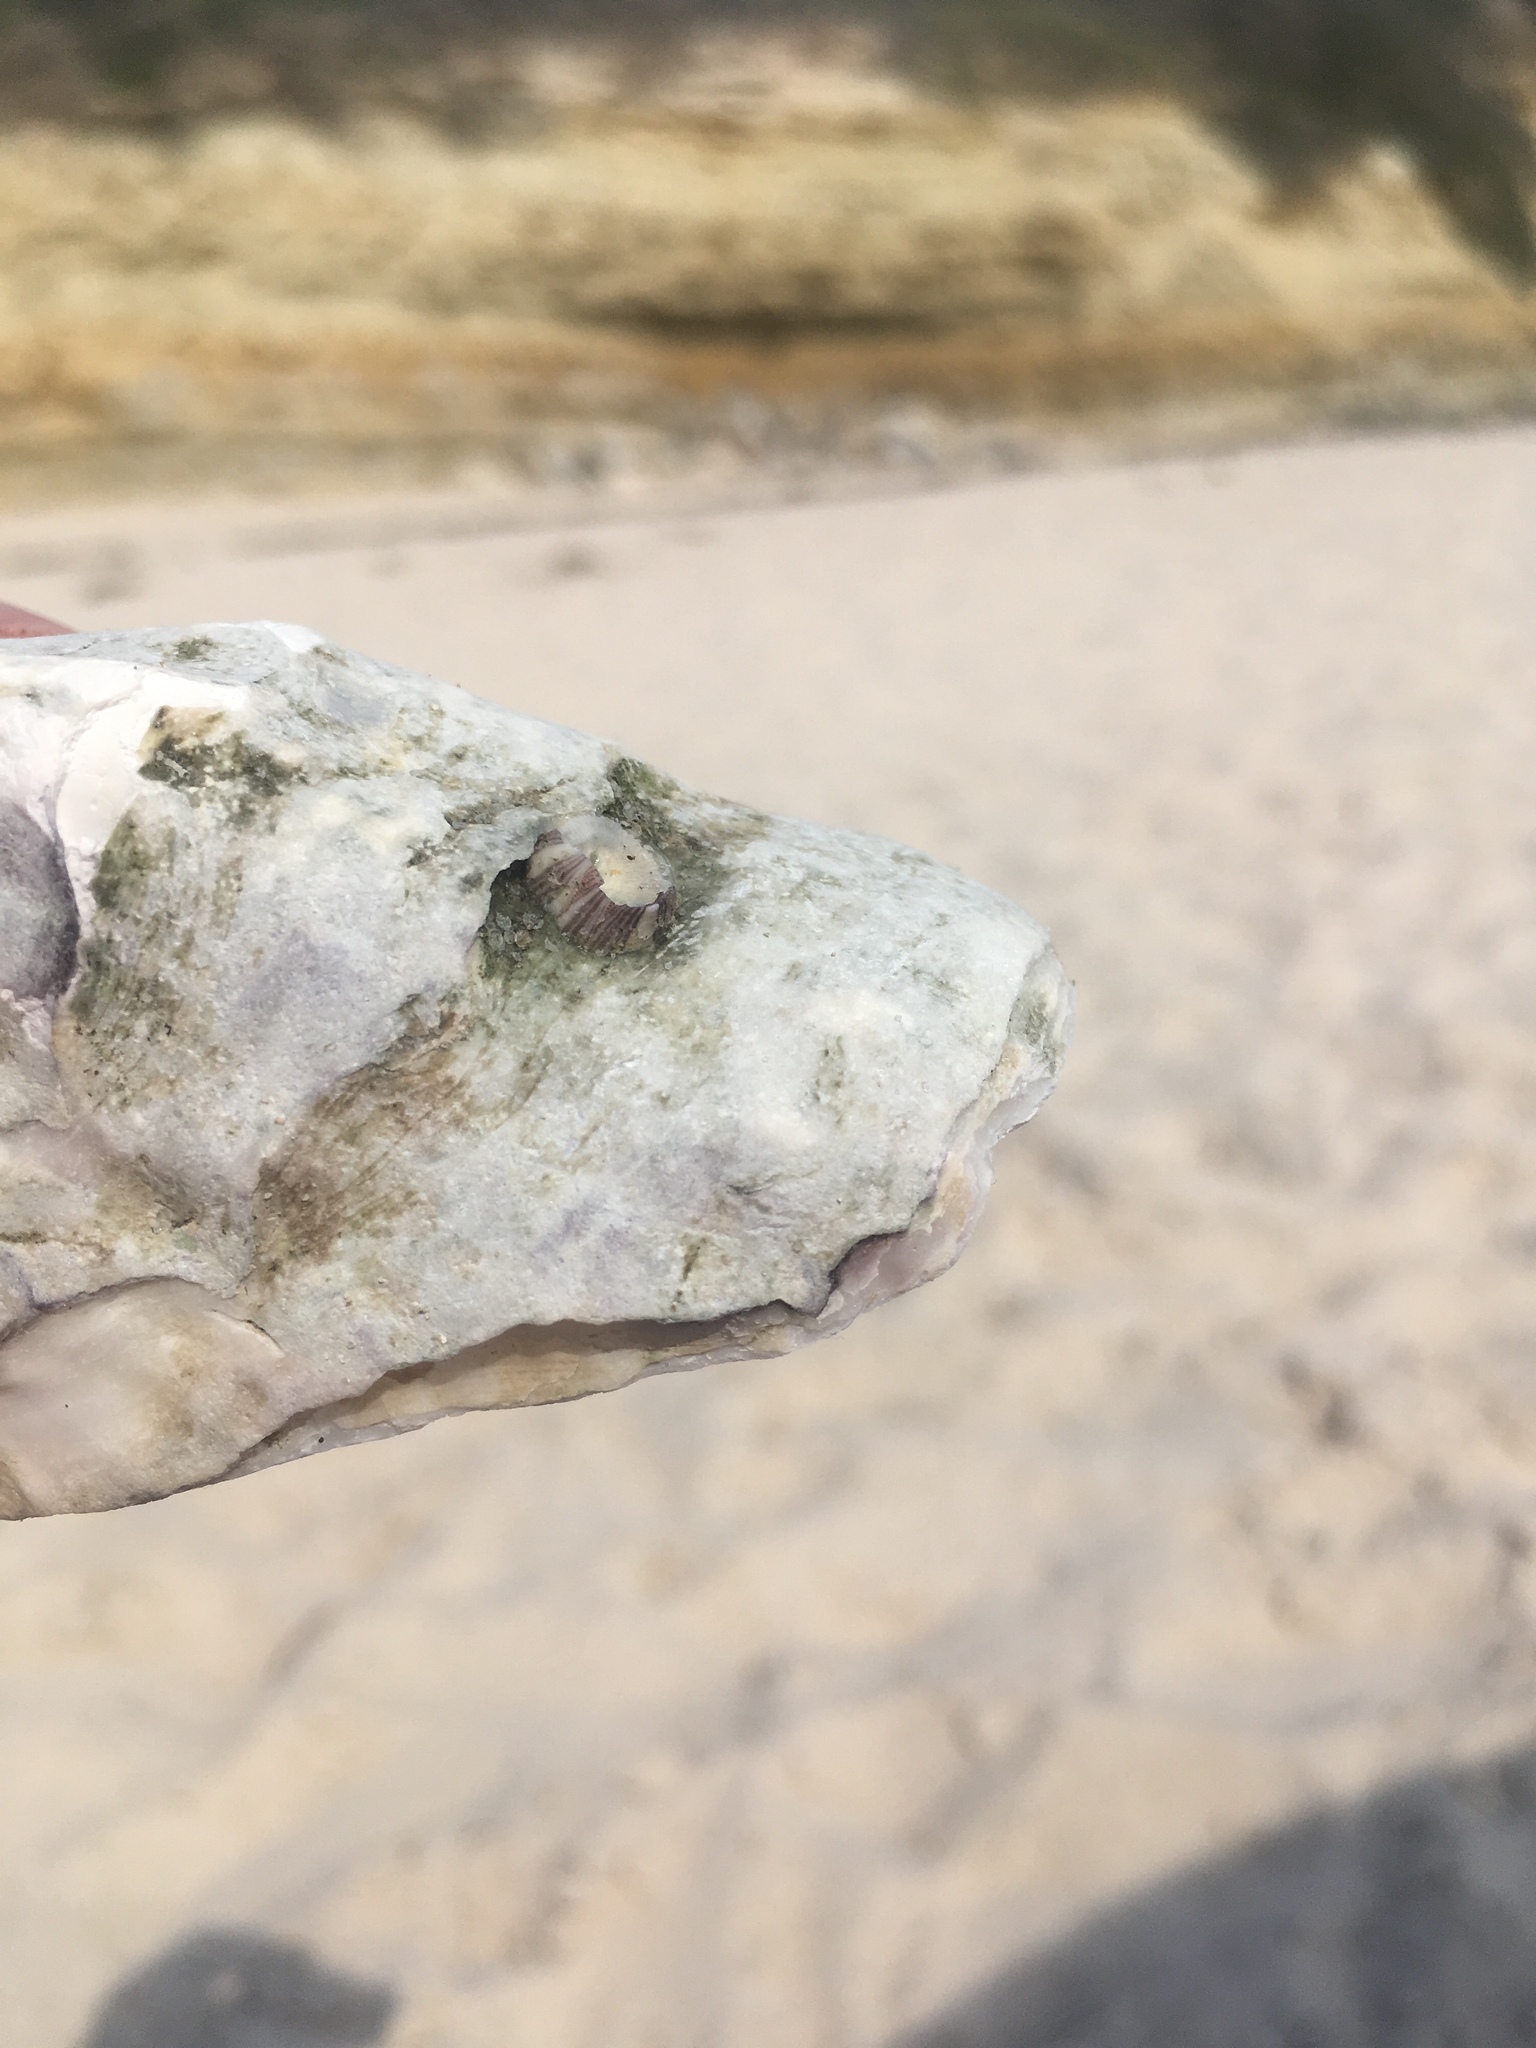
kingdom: Animalia
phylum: Arthropoda
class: Maxillopoda
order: Sessilia
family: Balanidae
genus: Amphibalanus
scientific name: Amphibalanus amphitrite
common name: Striped acorn barnacle
